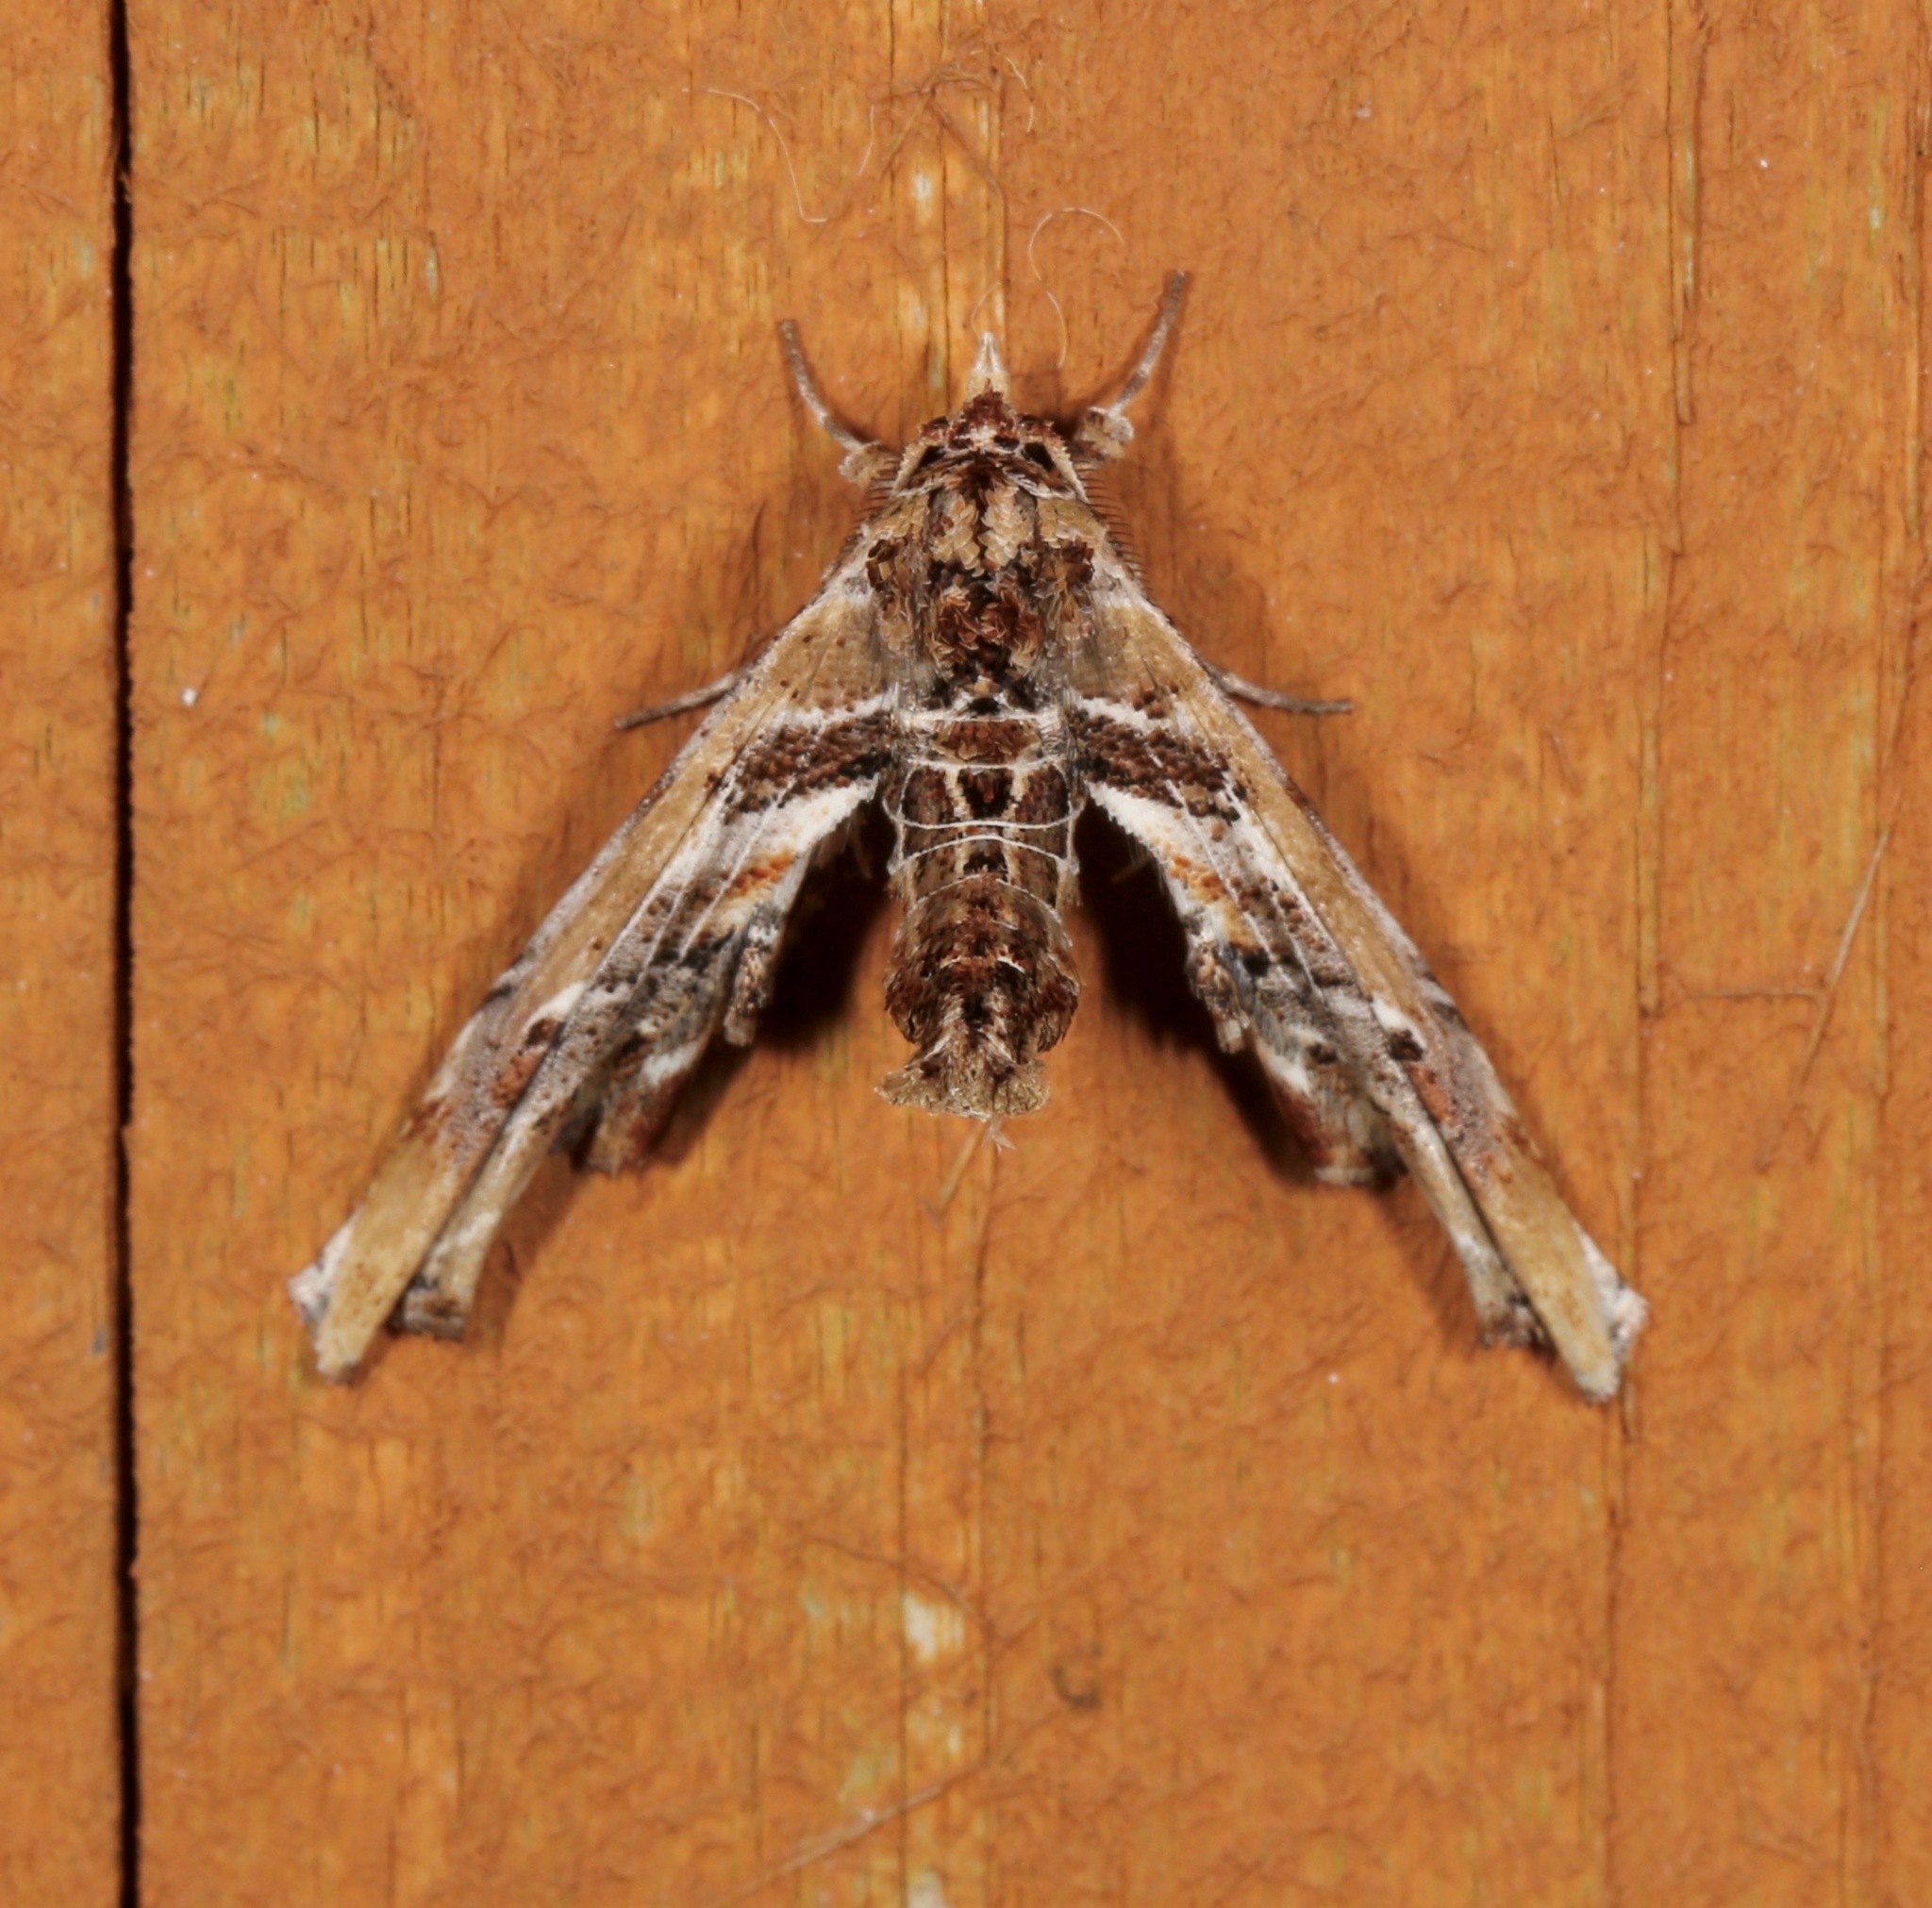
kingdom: Animalia
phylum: Arthropoda
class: Insecta
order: Lepidoptera
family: Euteliidae
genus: Marathyssa
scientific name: Marathyssa basalis
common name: Light marathyssa moth
